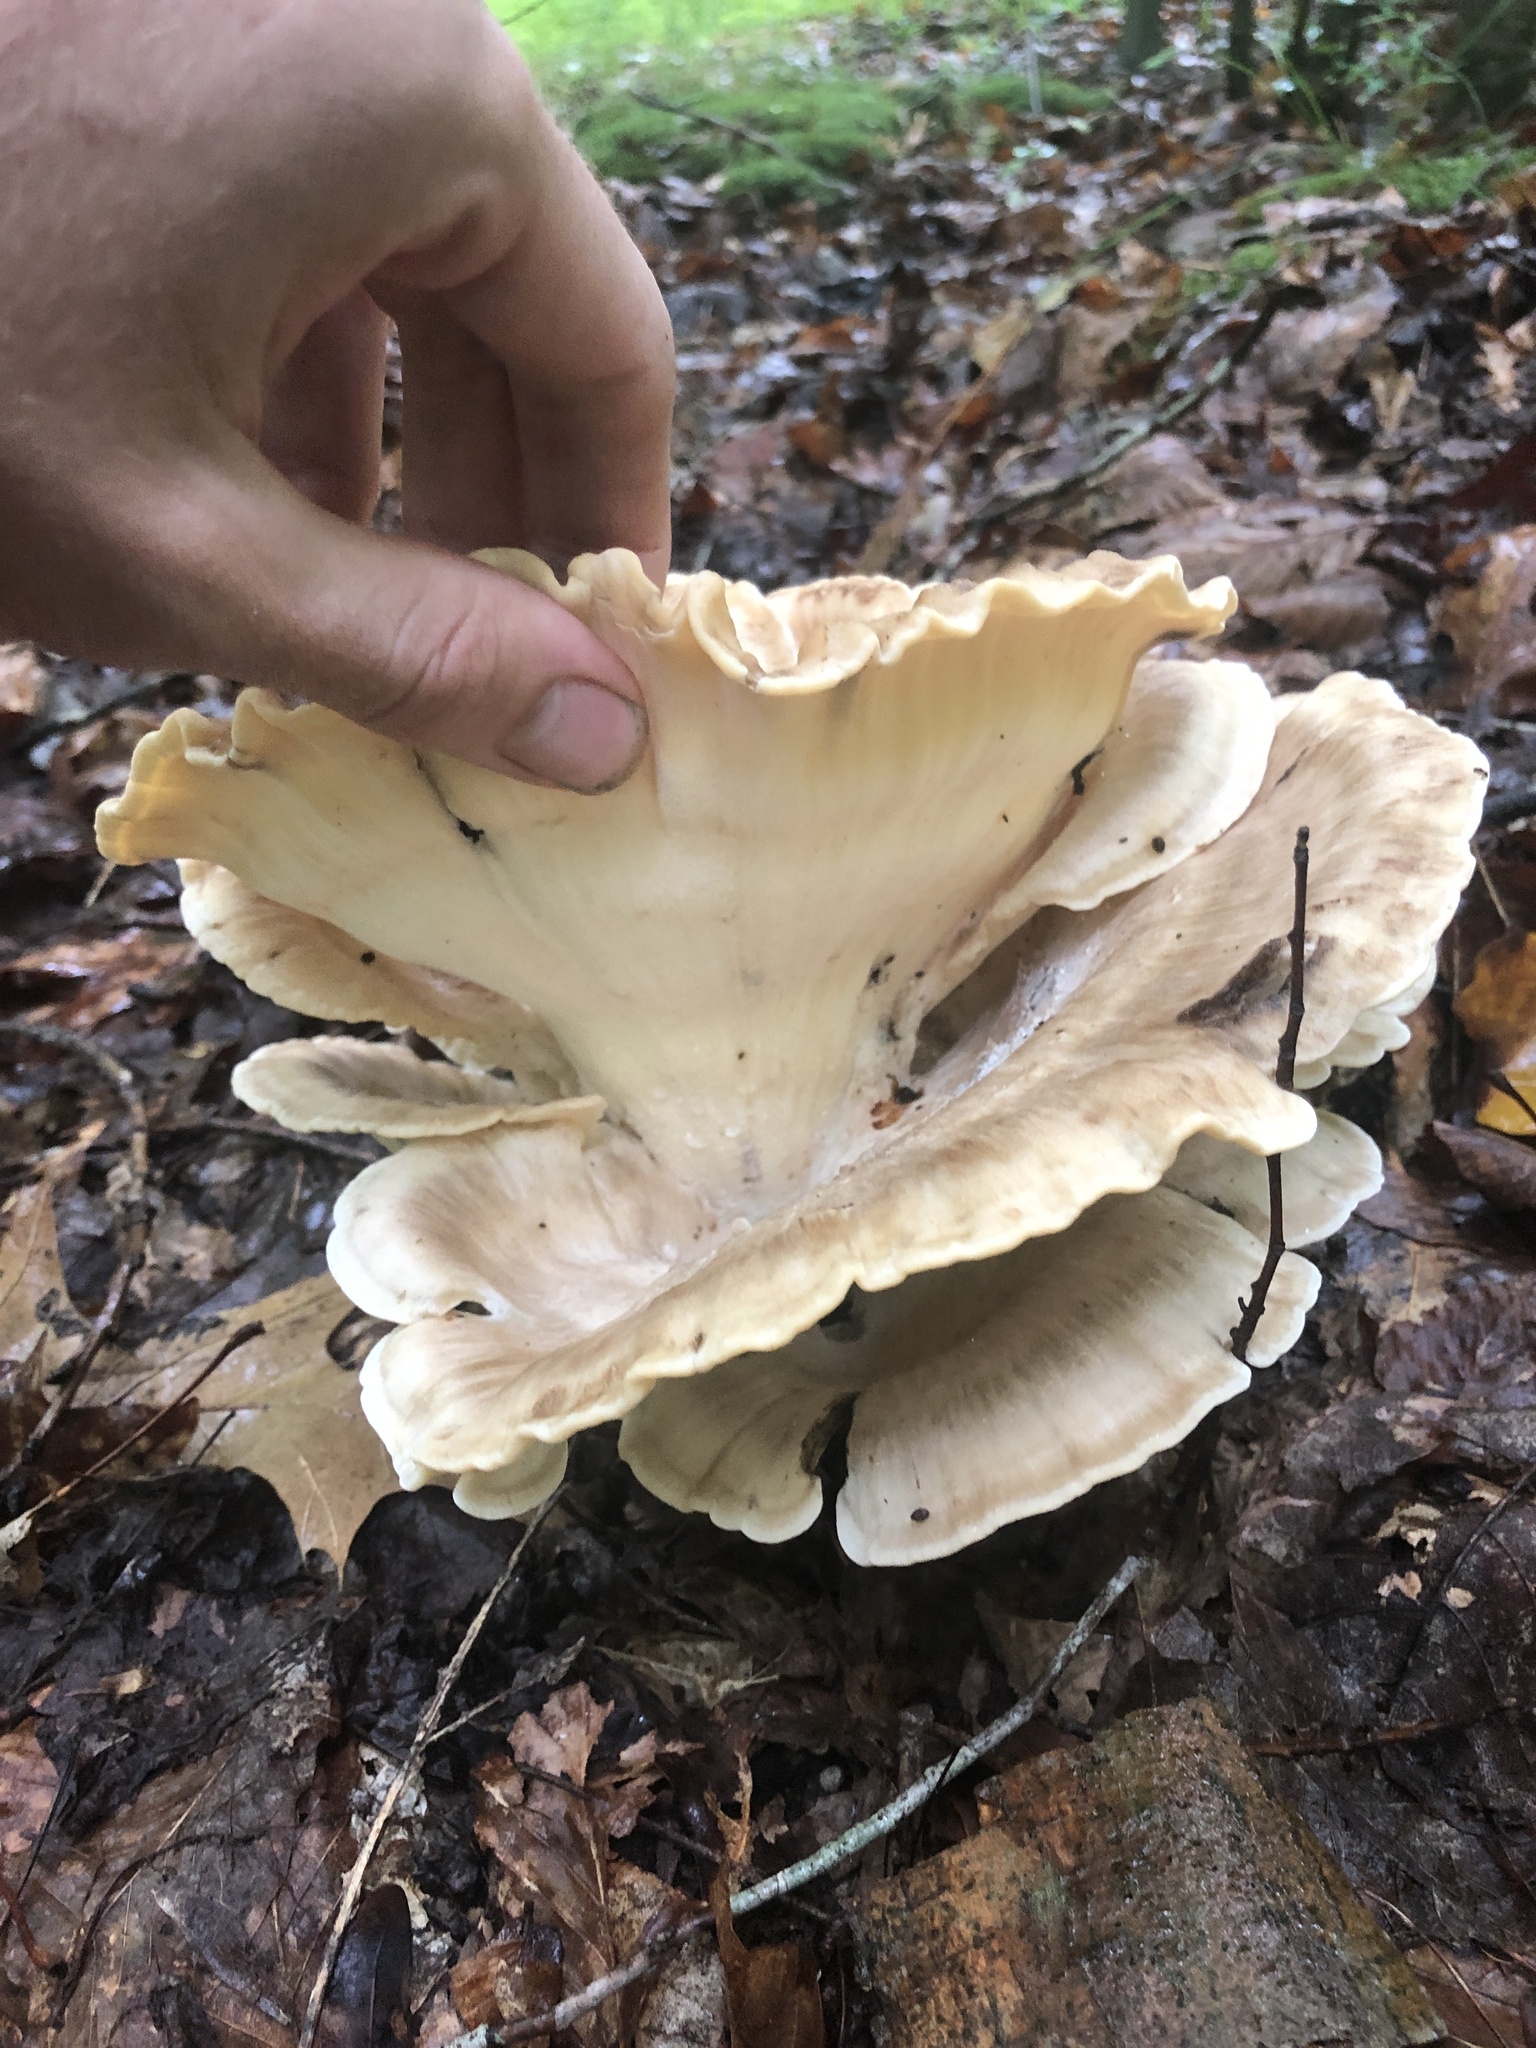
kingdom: Fungi
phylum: Basidiomycota
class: Agaricomycetes
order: Polyporales
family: Meripilaceae
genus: Meripilus
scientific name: Meripilus sumstinei
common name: Black-staining polypore
